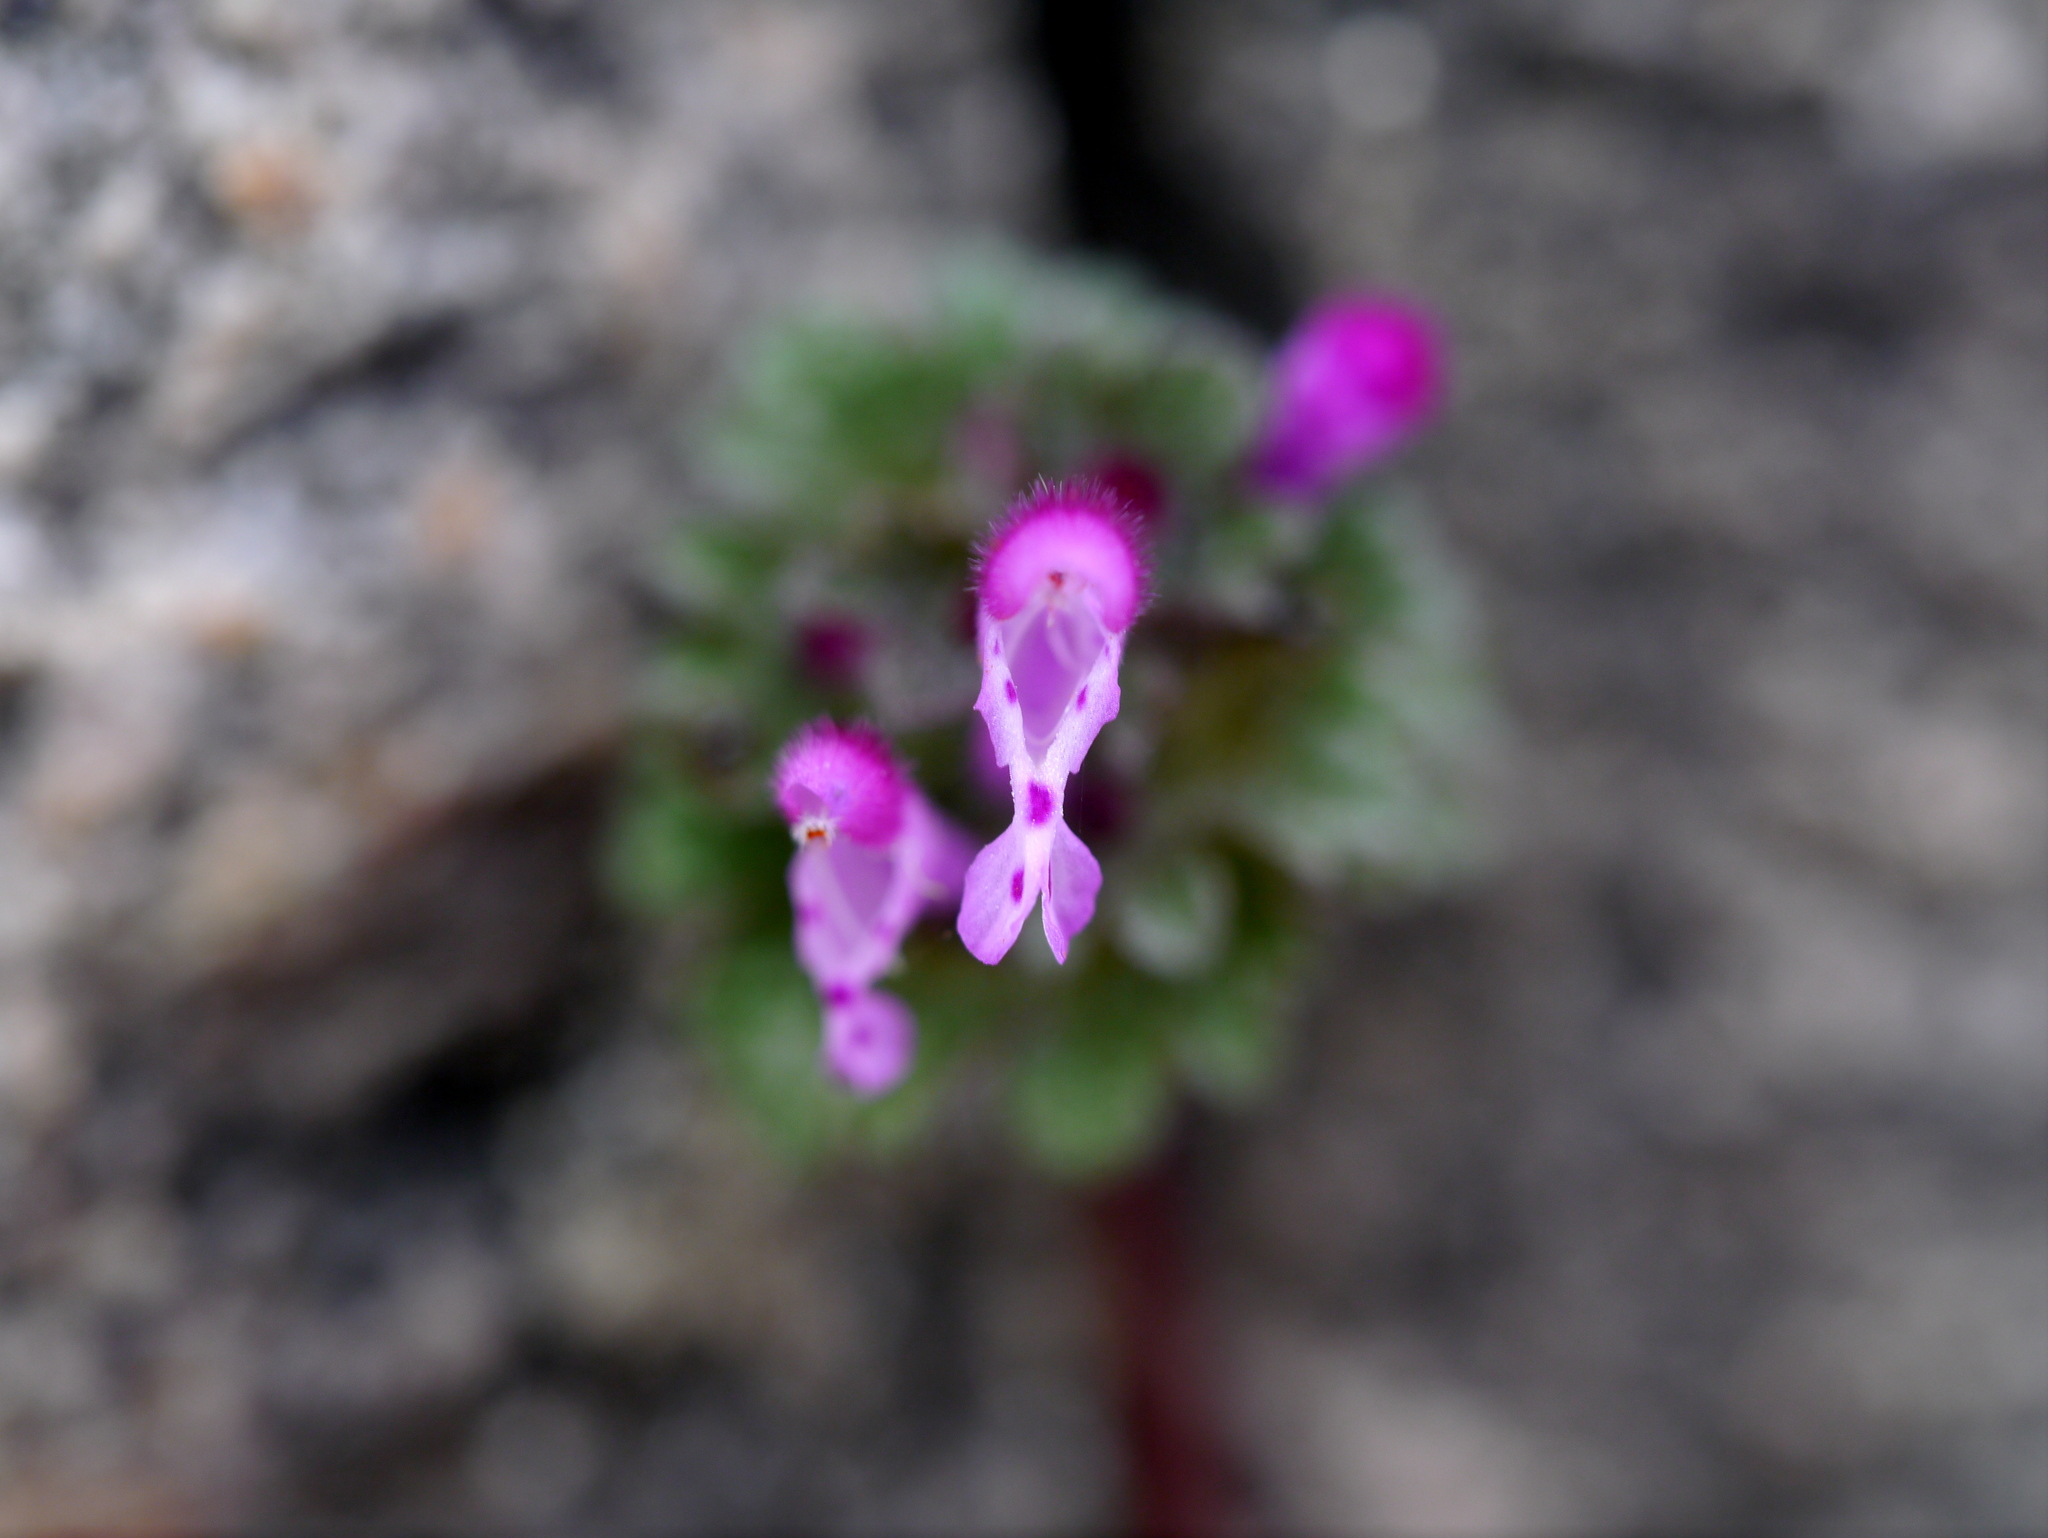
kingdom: Plantae
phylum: Tracheophyta
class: Magnoliopsida
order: Lamiales
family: Lamiaceae
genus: Lamium
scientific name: Lamium amplexicaule
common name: Henbit dead-nettle
